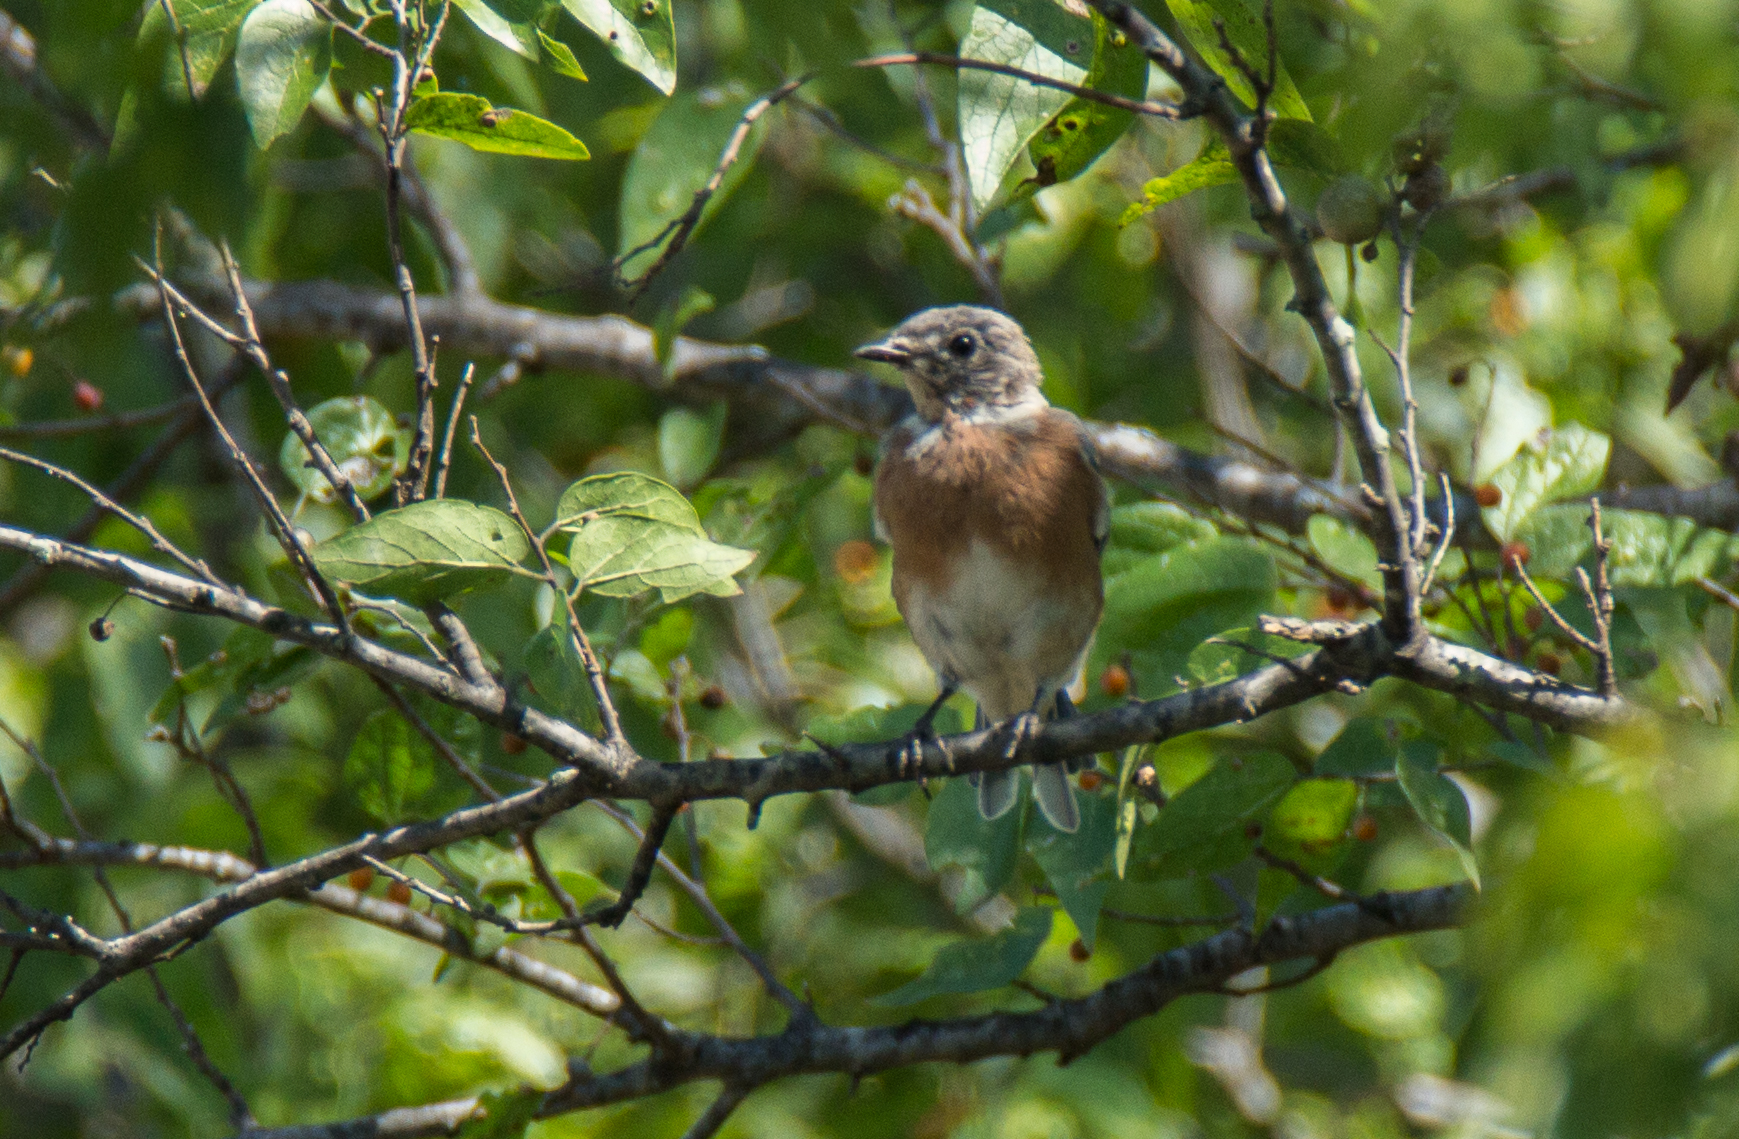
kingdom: Animalia
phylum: Chordata
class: Aves
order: Passeriformes
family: Turdidae
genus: Sialia
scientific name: Sialia sialis
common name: Eastern bluebird
